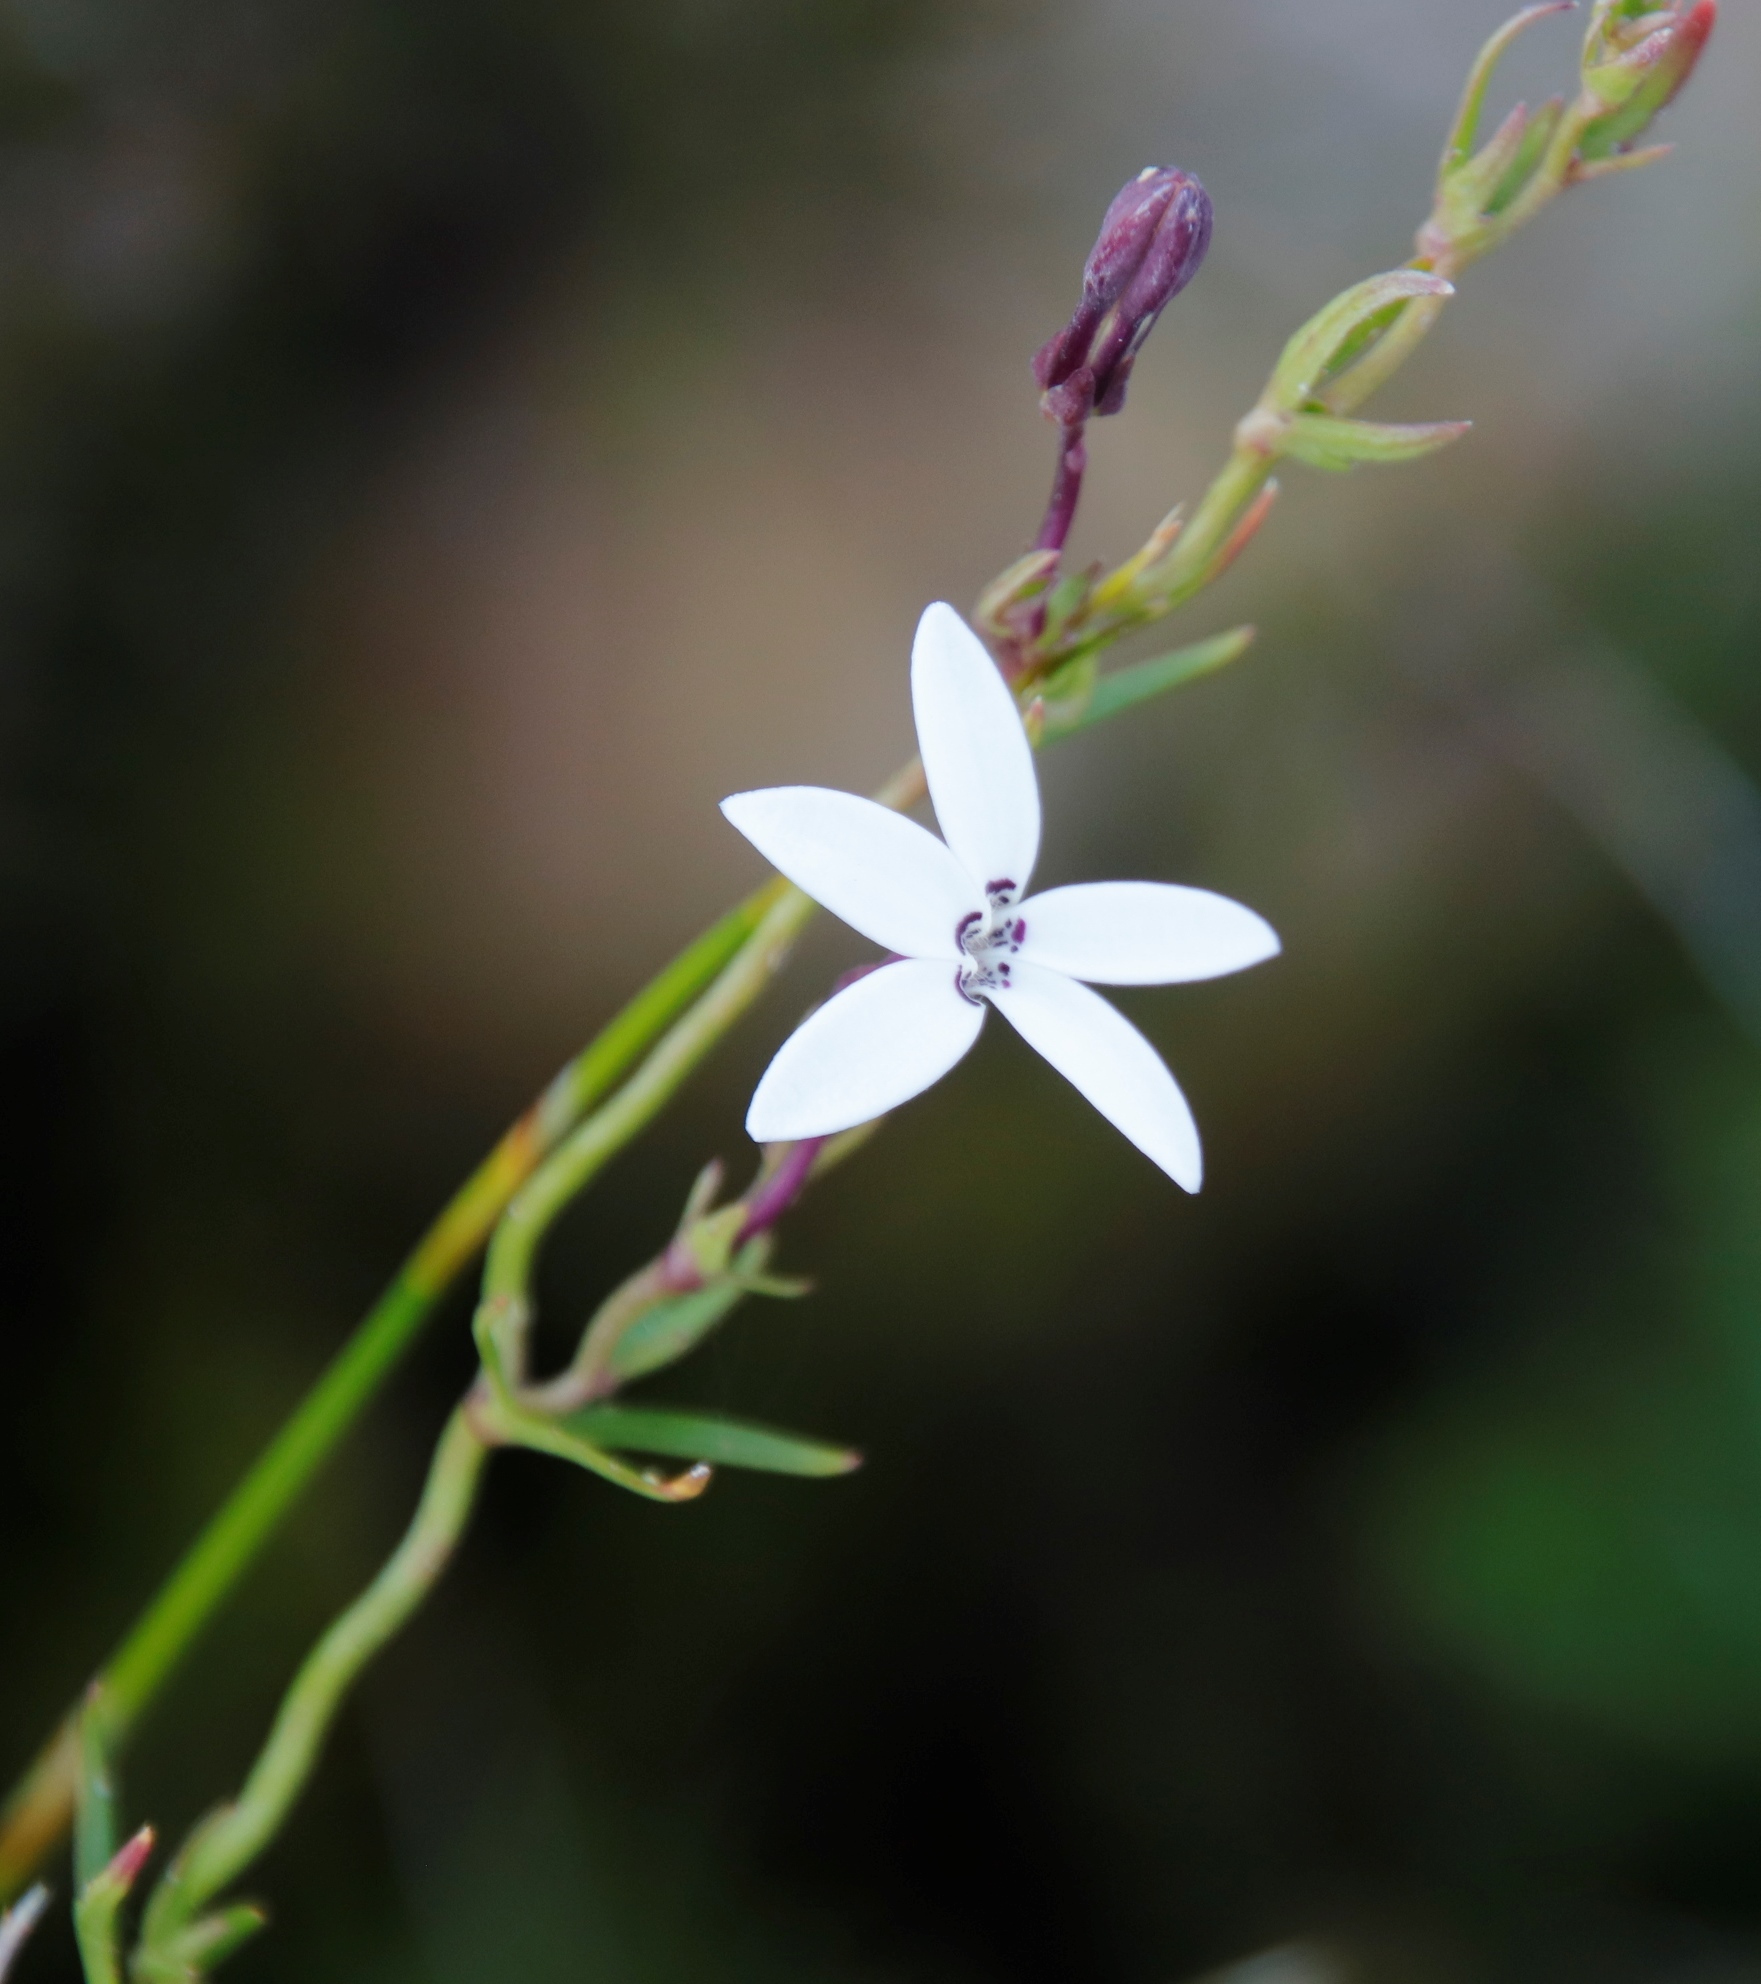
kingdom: Plantae
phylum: Tracheophyta
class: Magnoliopsida
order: Asterales
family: Campanulaceae
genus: Cyphia
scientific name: Cyphia volubilis
